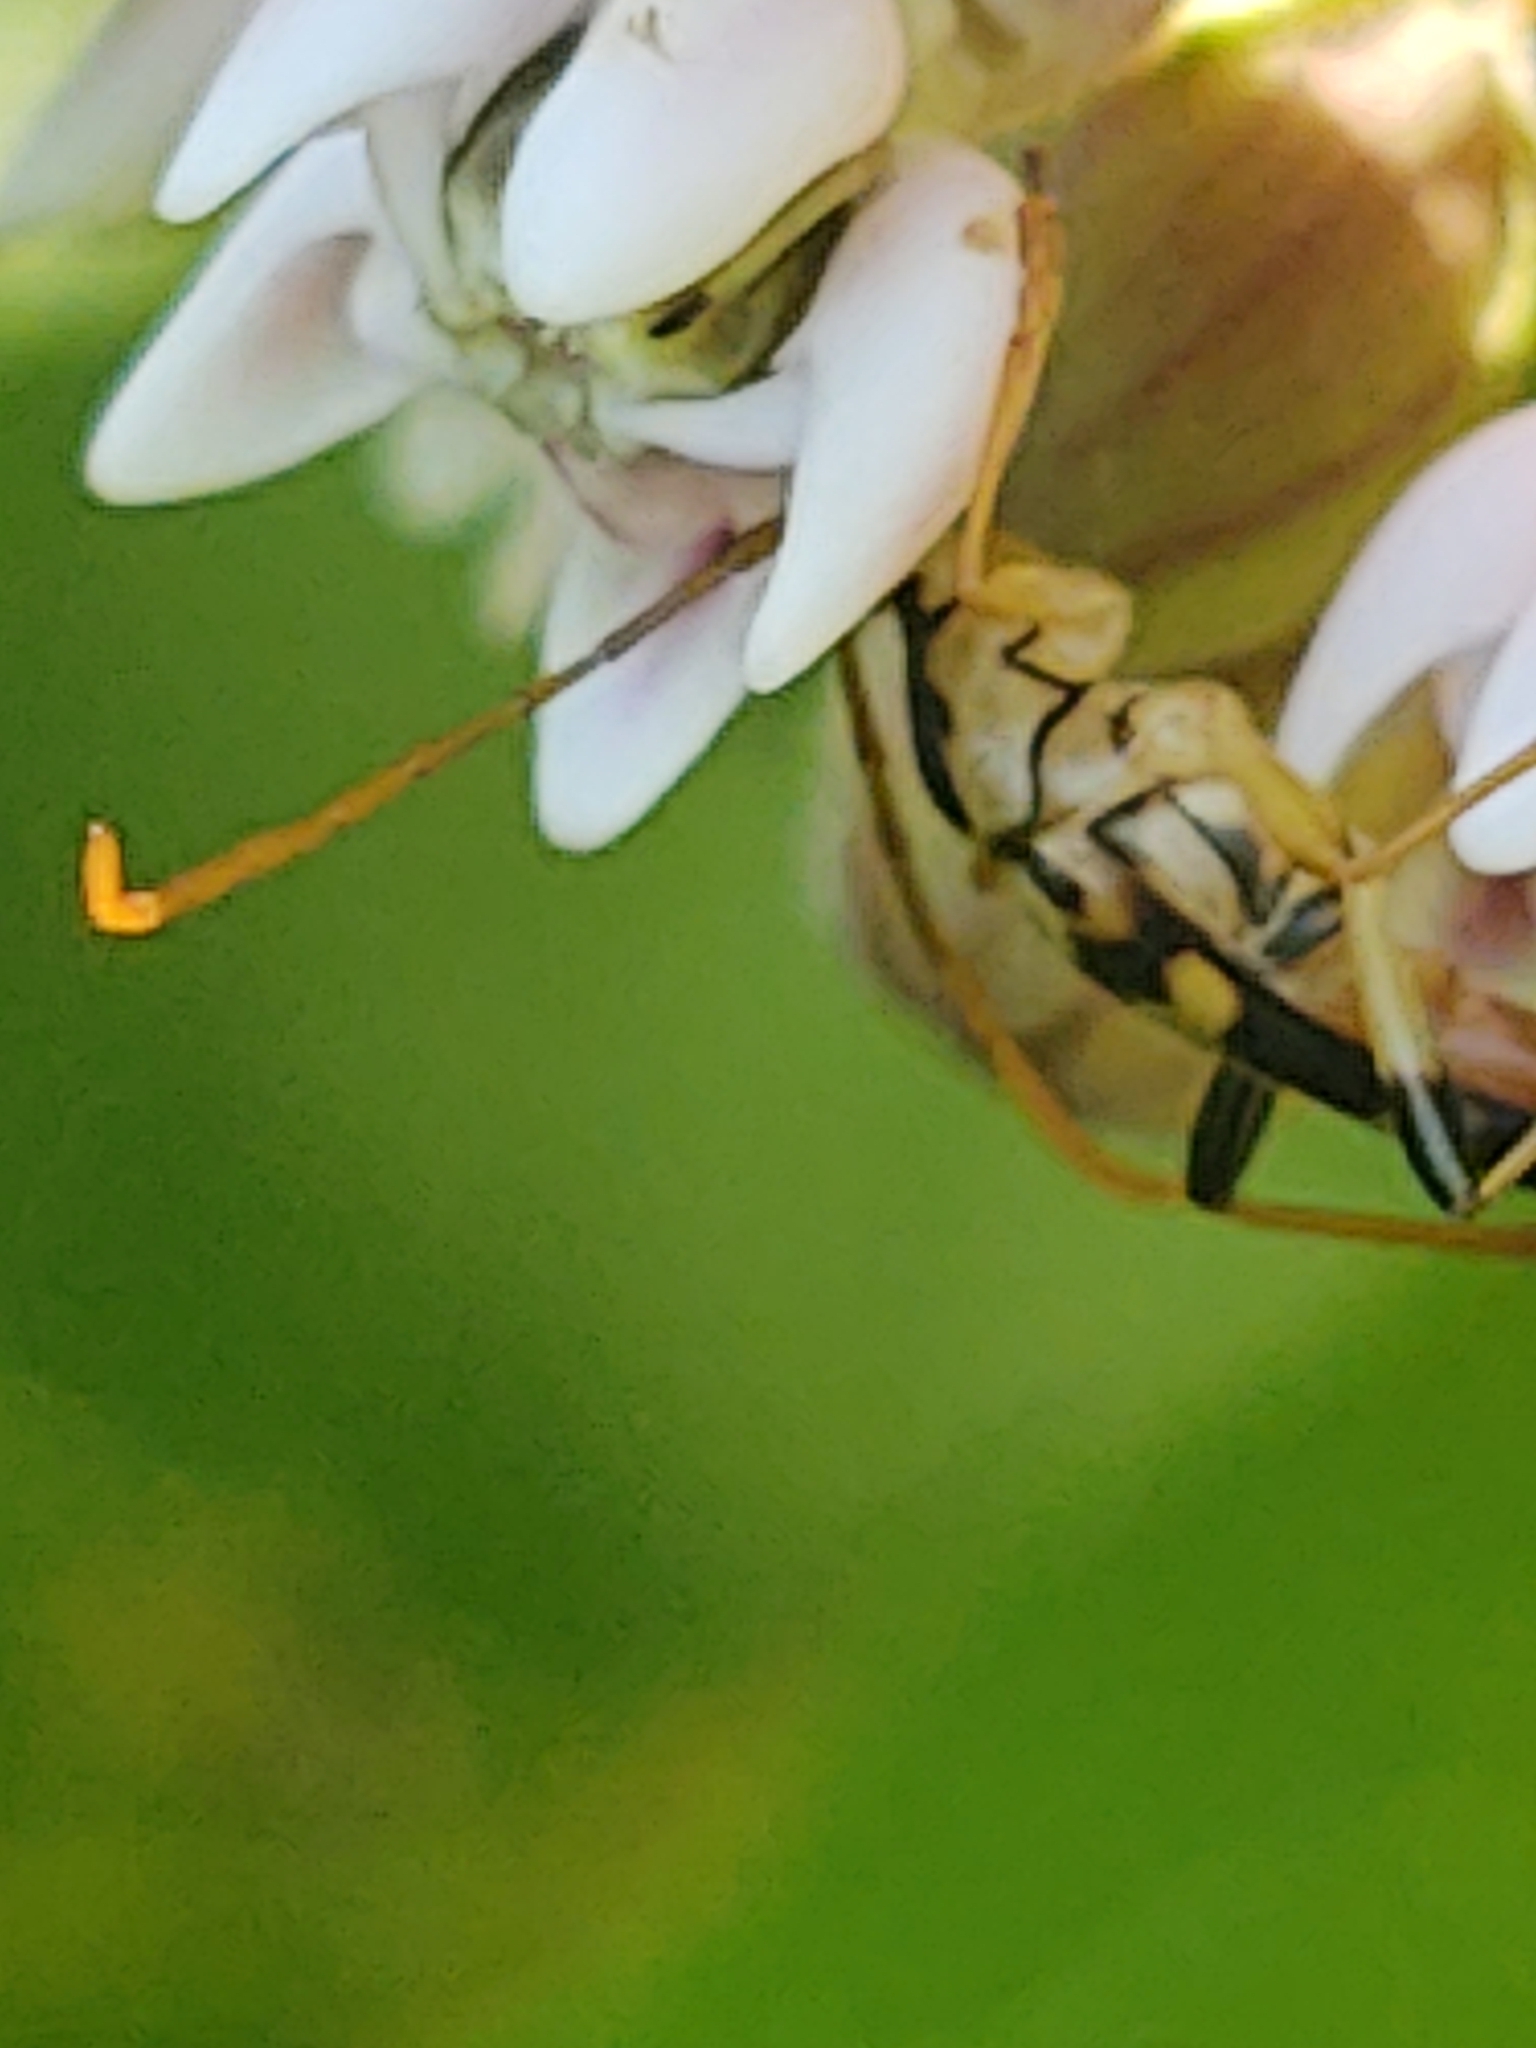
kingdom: Animalia
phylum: Arthropoda
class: Insecta
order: Coleoptera
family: Cerambycidae
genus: Strangalia
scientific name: Strangalia luteicornis
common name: Yellow-horned flower longhorn beetle
